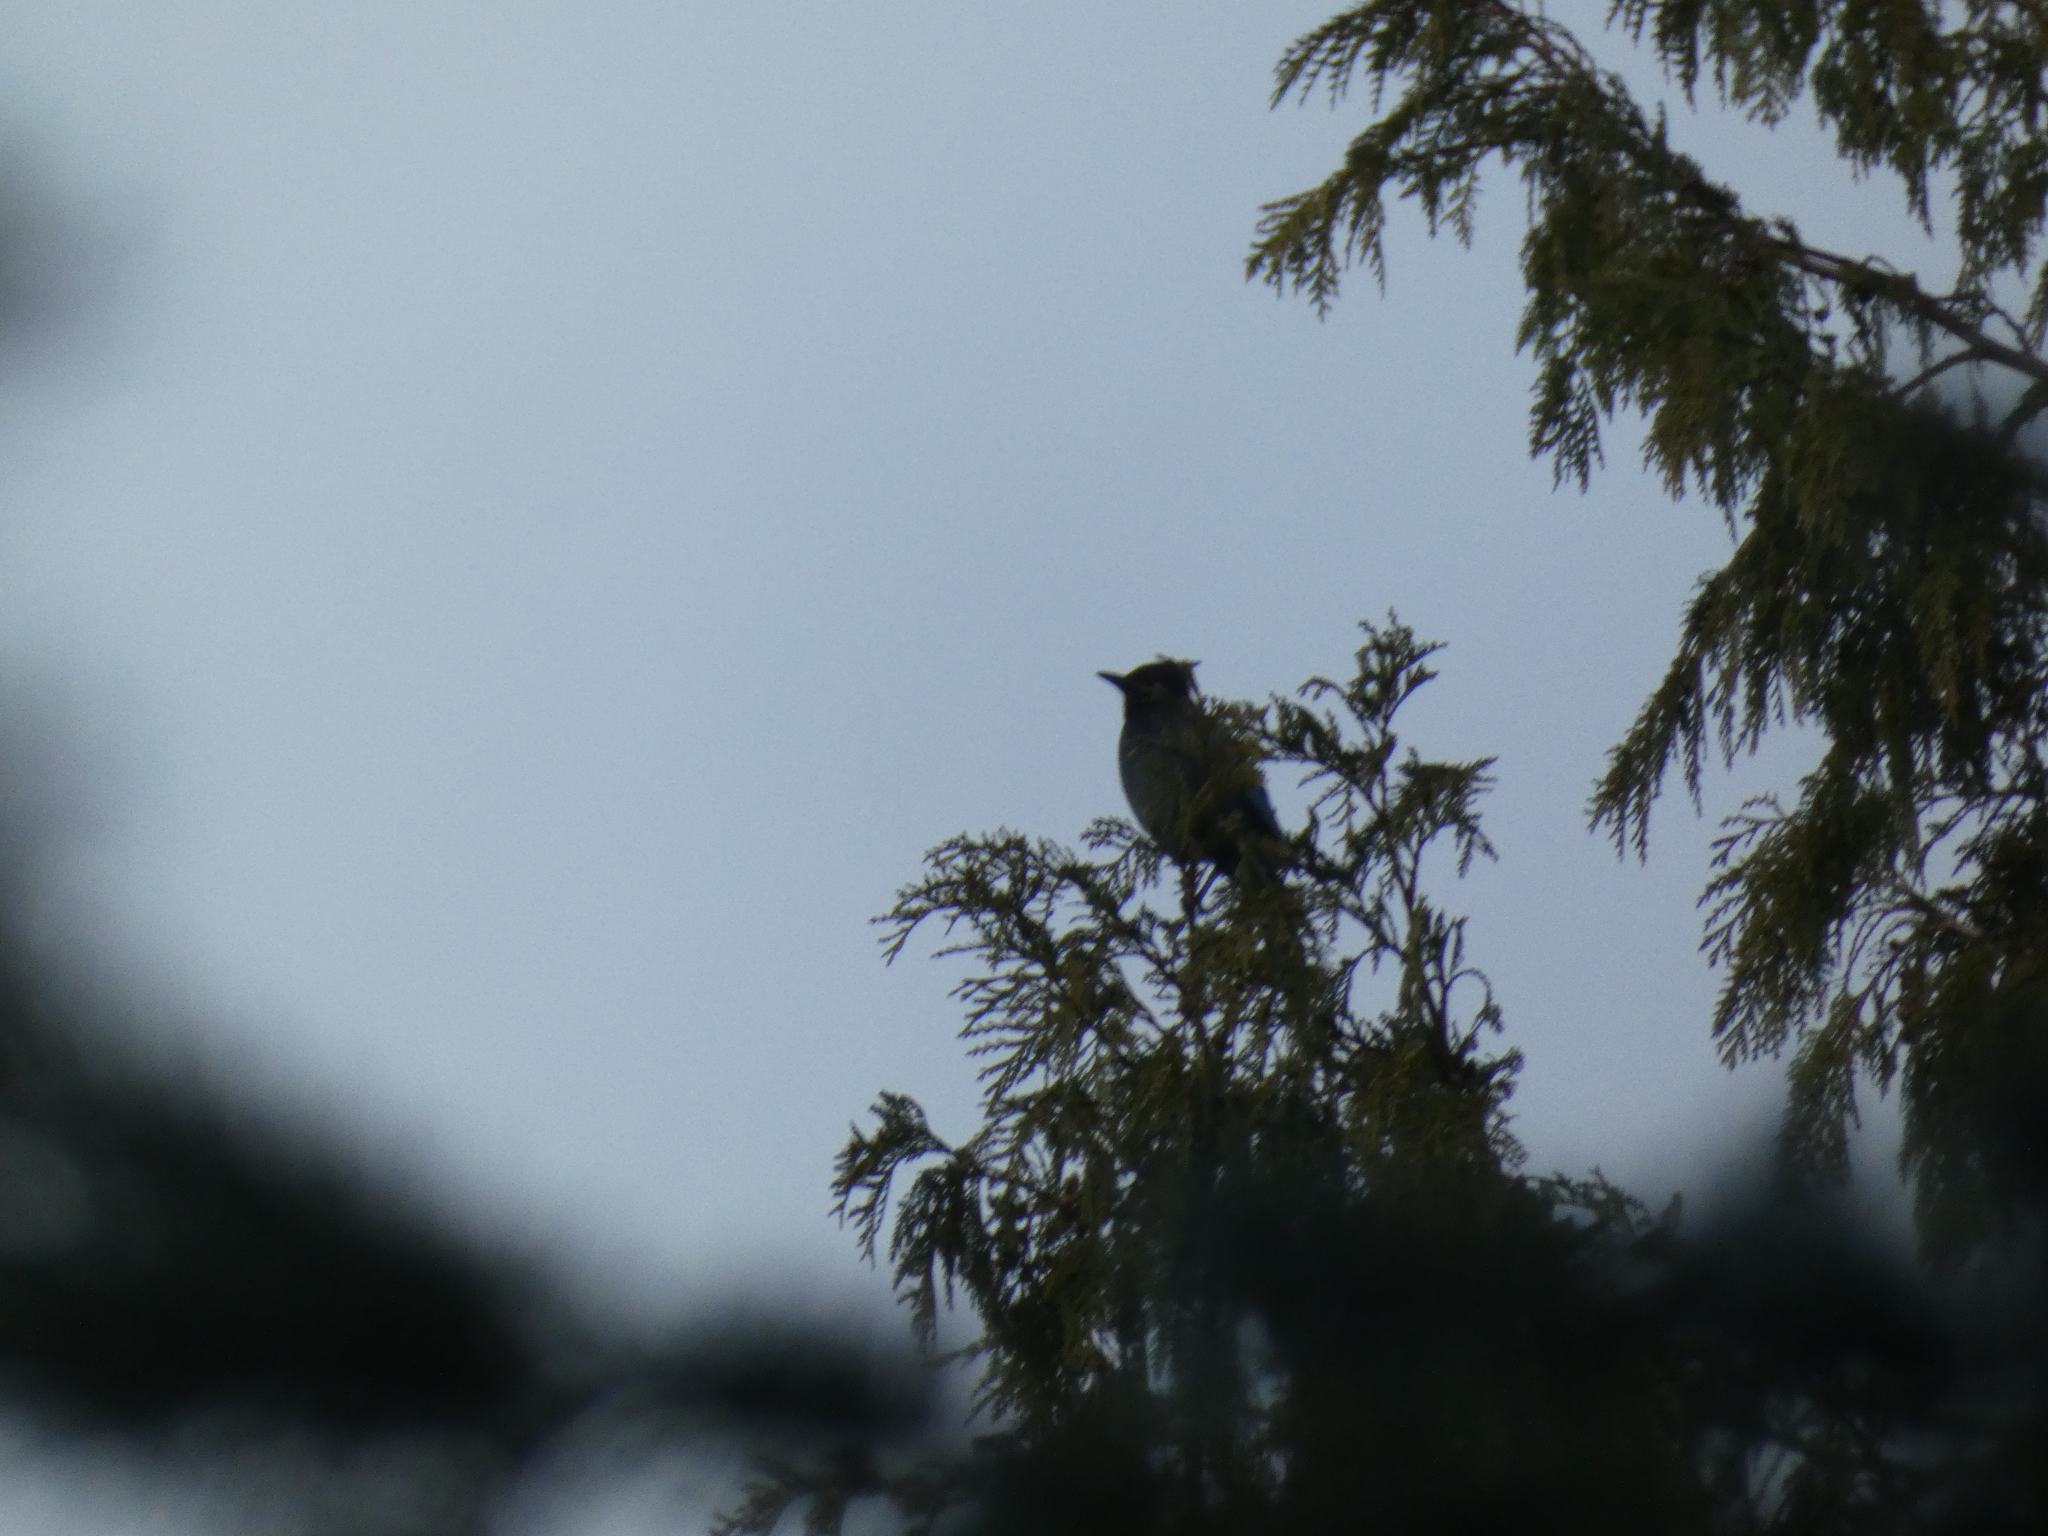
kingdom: Animalia
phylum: Chordata
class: Aves
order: Passeriformes
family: Corvidae
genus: Cyanocitta
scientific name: Cyanocitta stelleri
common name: Steller's jay
